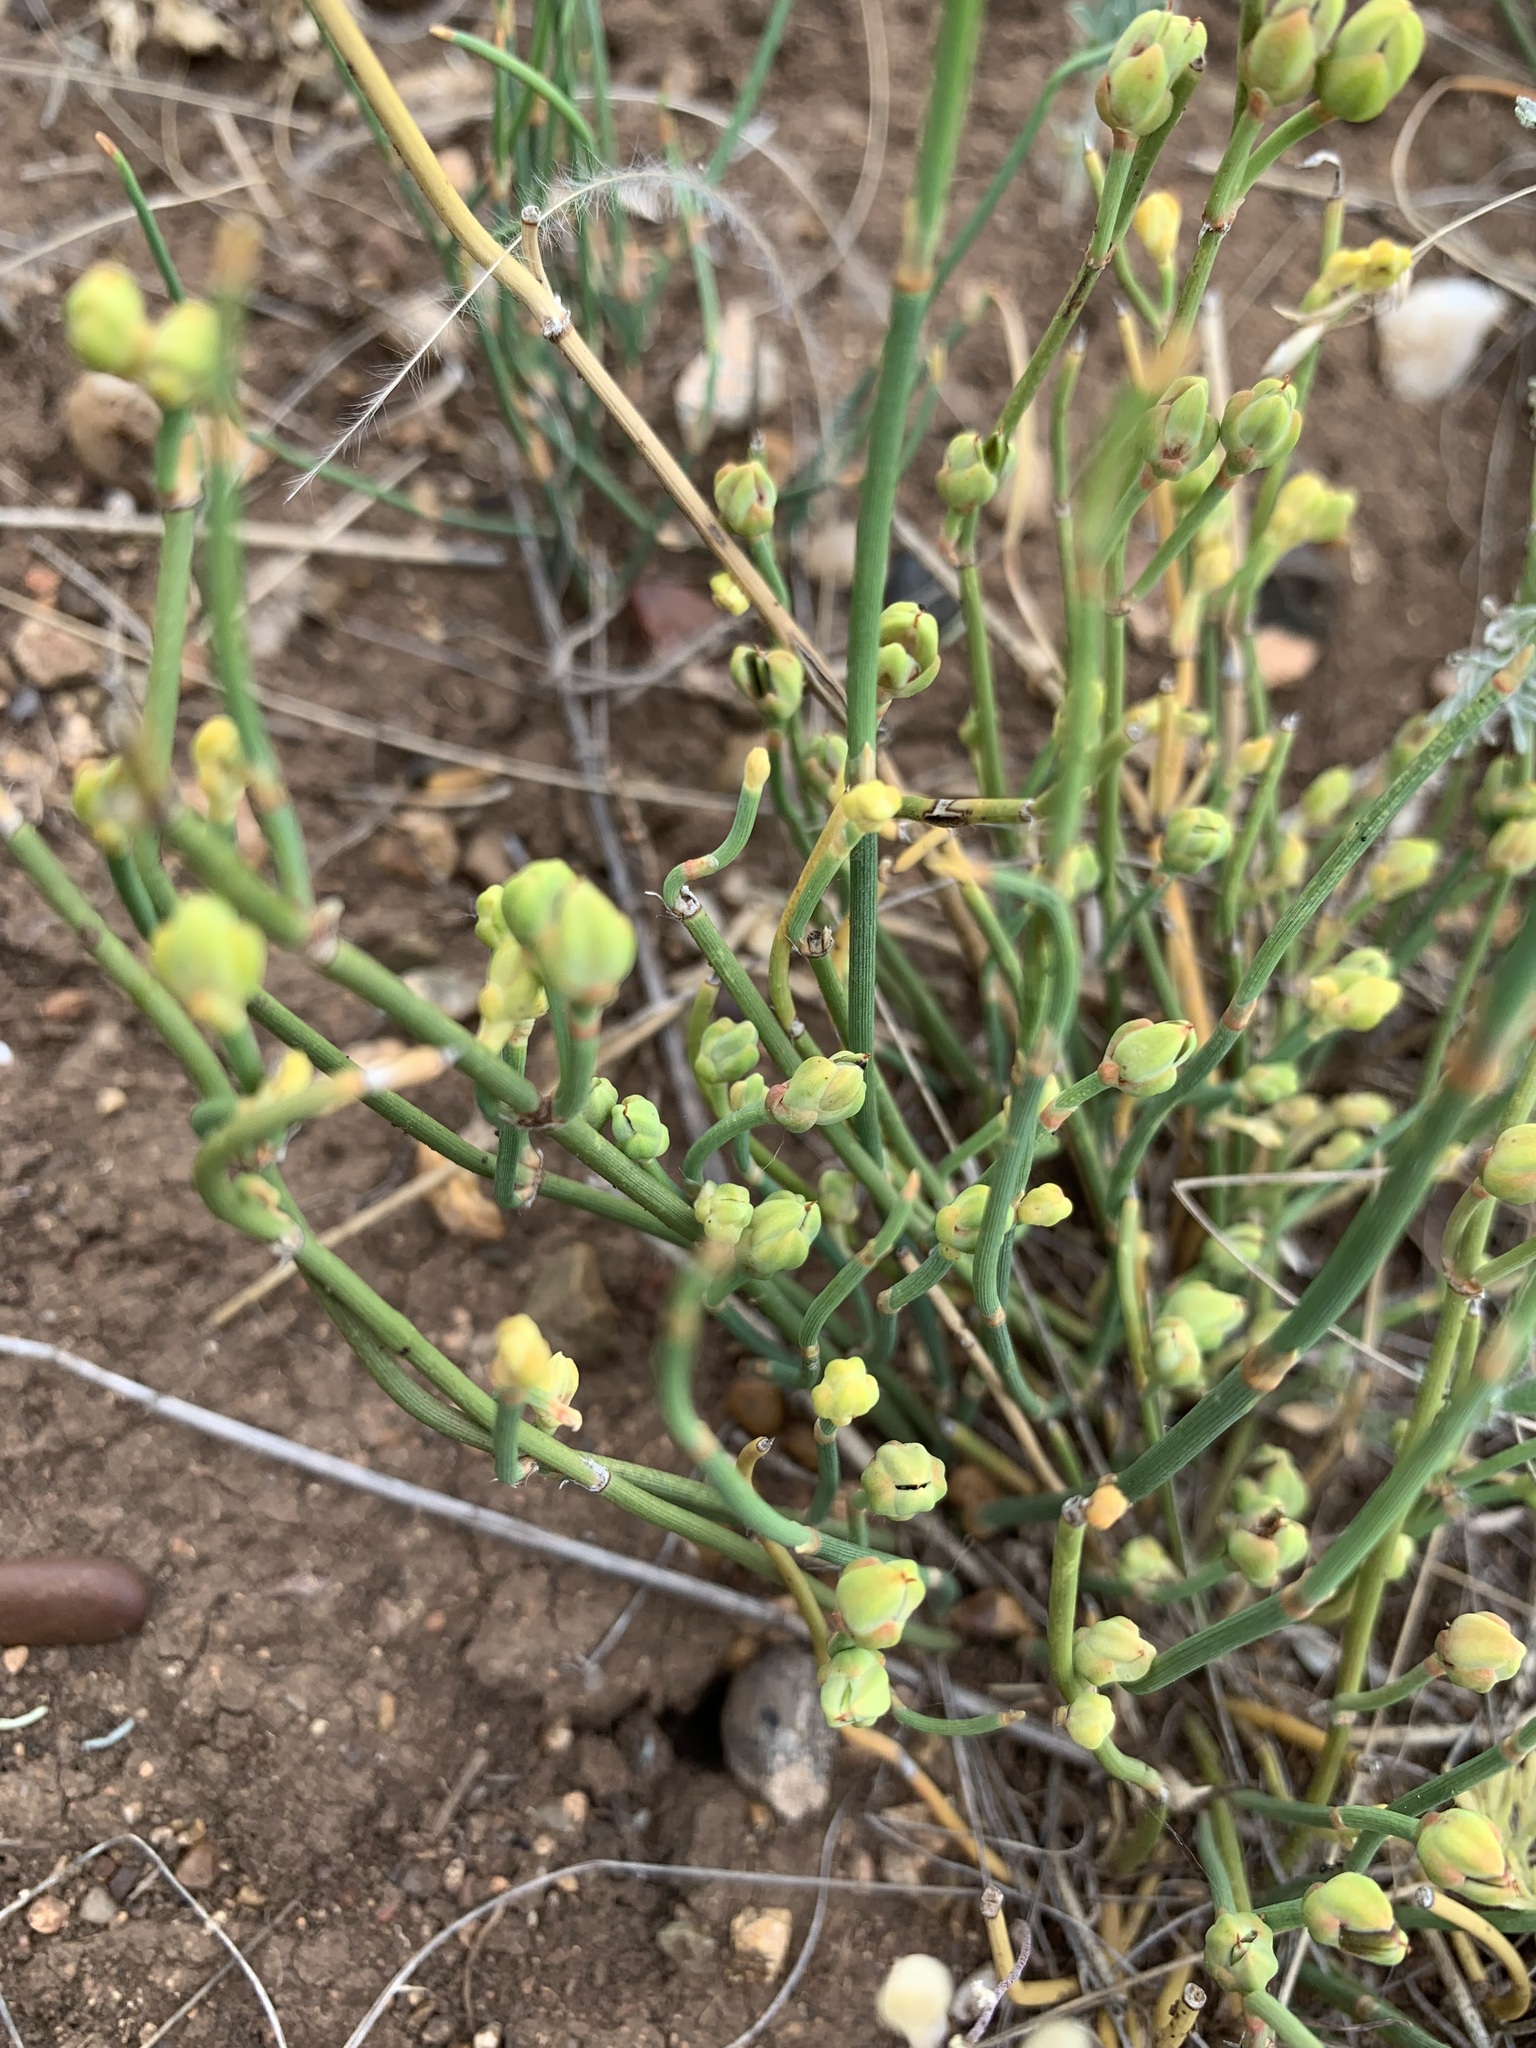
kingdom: Plantae
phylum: Tracheophyta
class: Gnetopsida
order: Ephedrales
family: Ephedraceae
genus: Ephedra
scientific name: Ephedra distachya
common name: Sea grape
